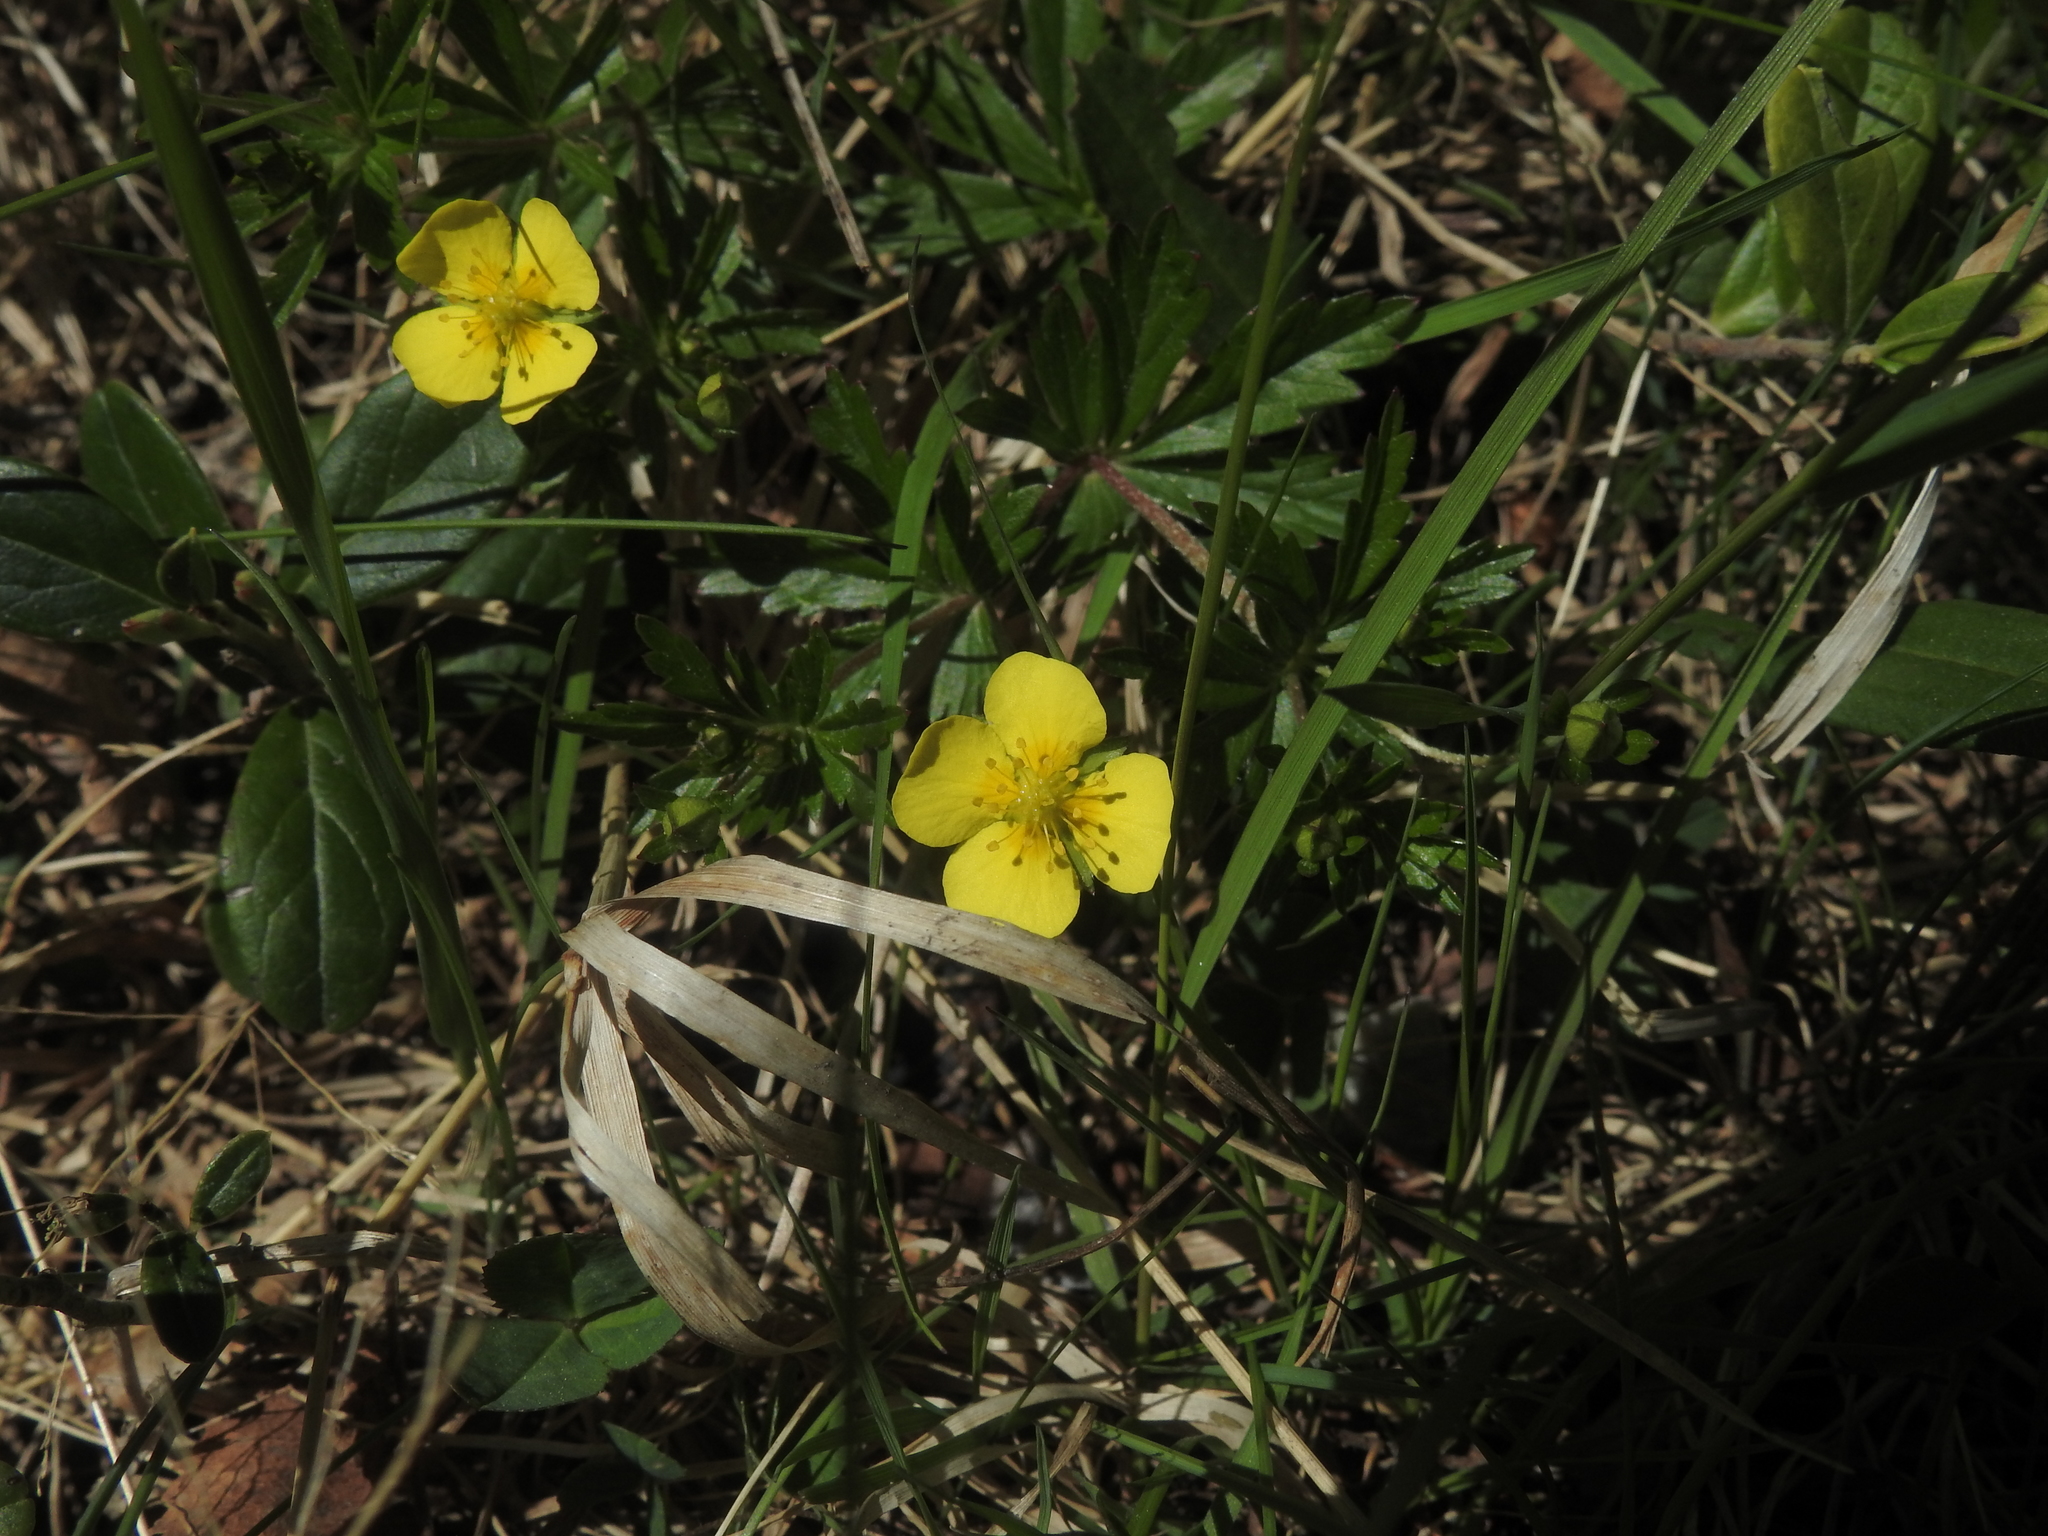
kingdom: Plantae
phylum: Tracheophyta
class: Magnoliopsida
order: Rosales
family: Rosaceae
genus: Potentilla
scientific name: Potentilla erecta
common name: Tormentil
